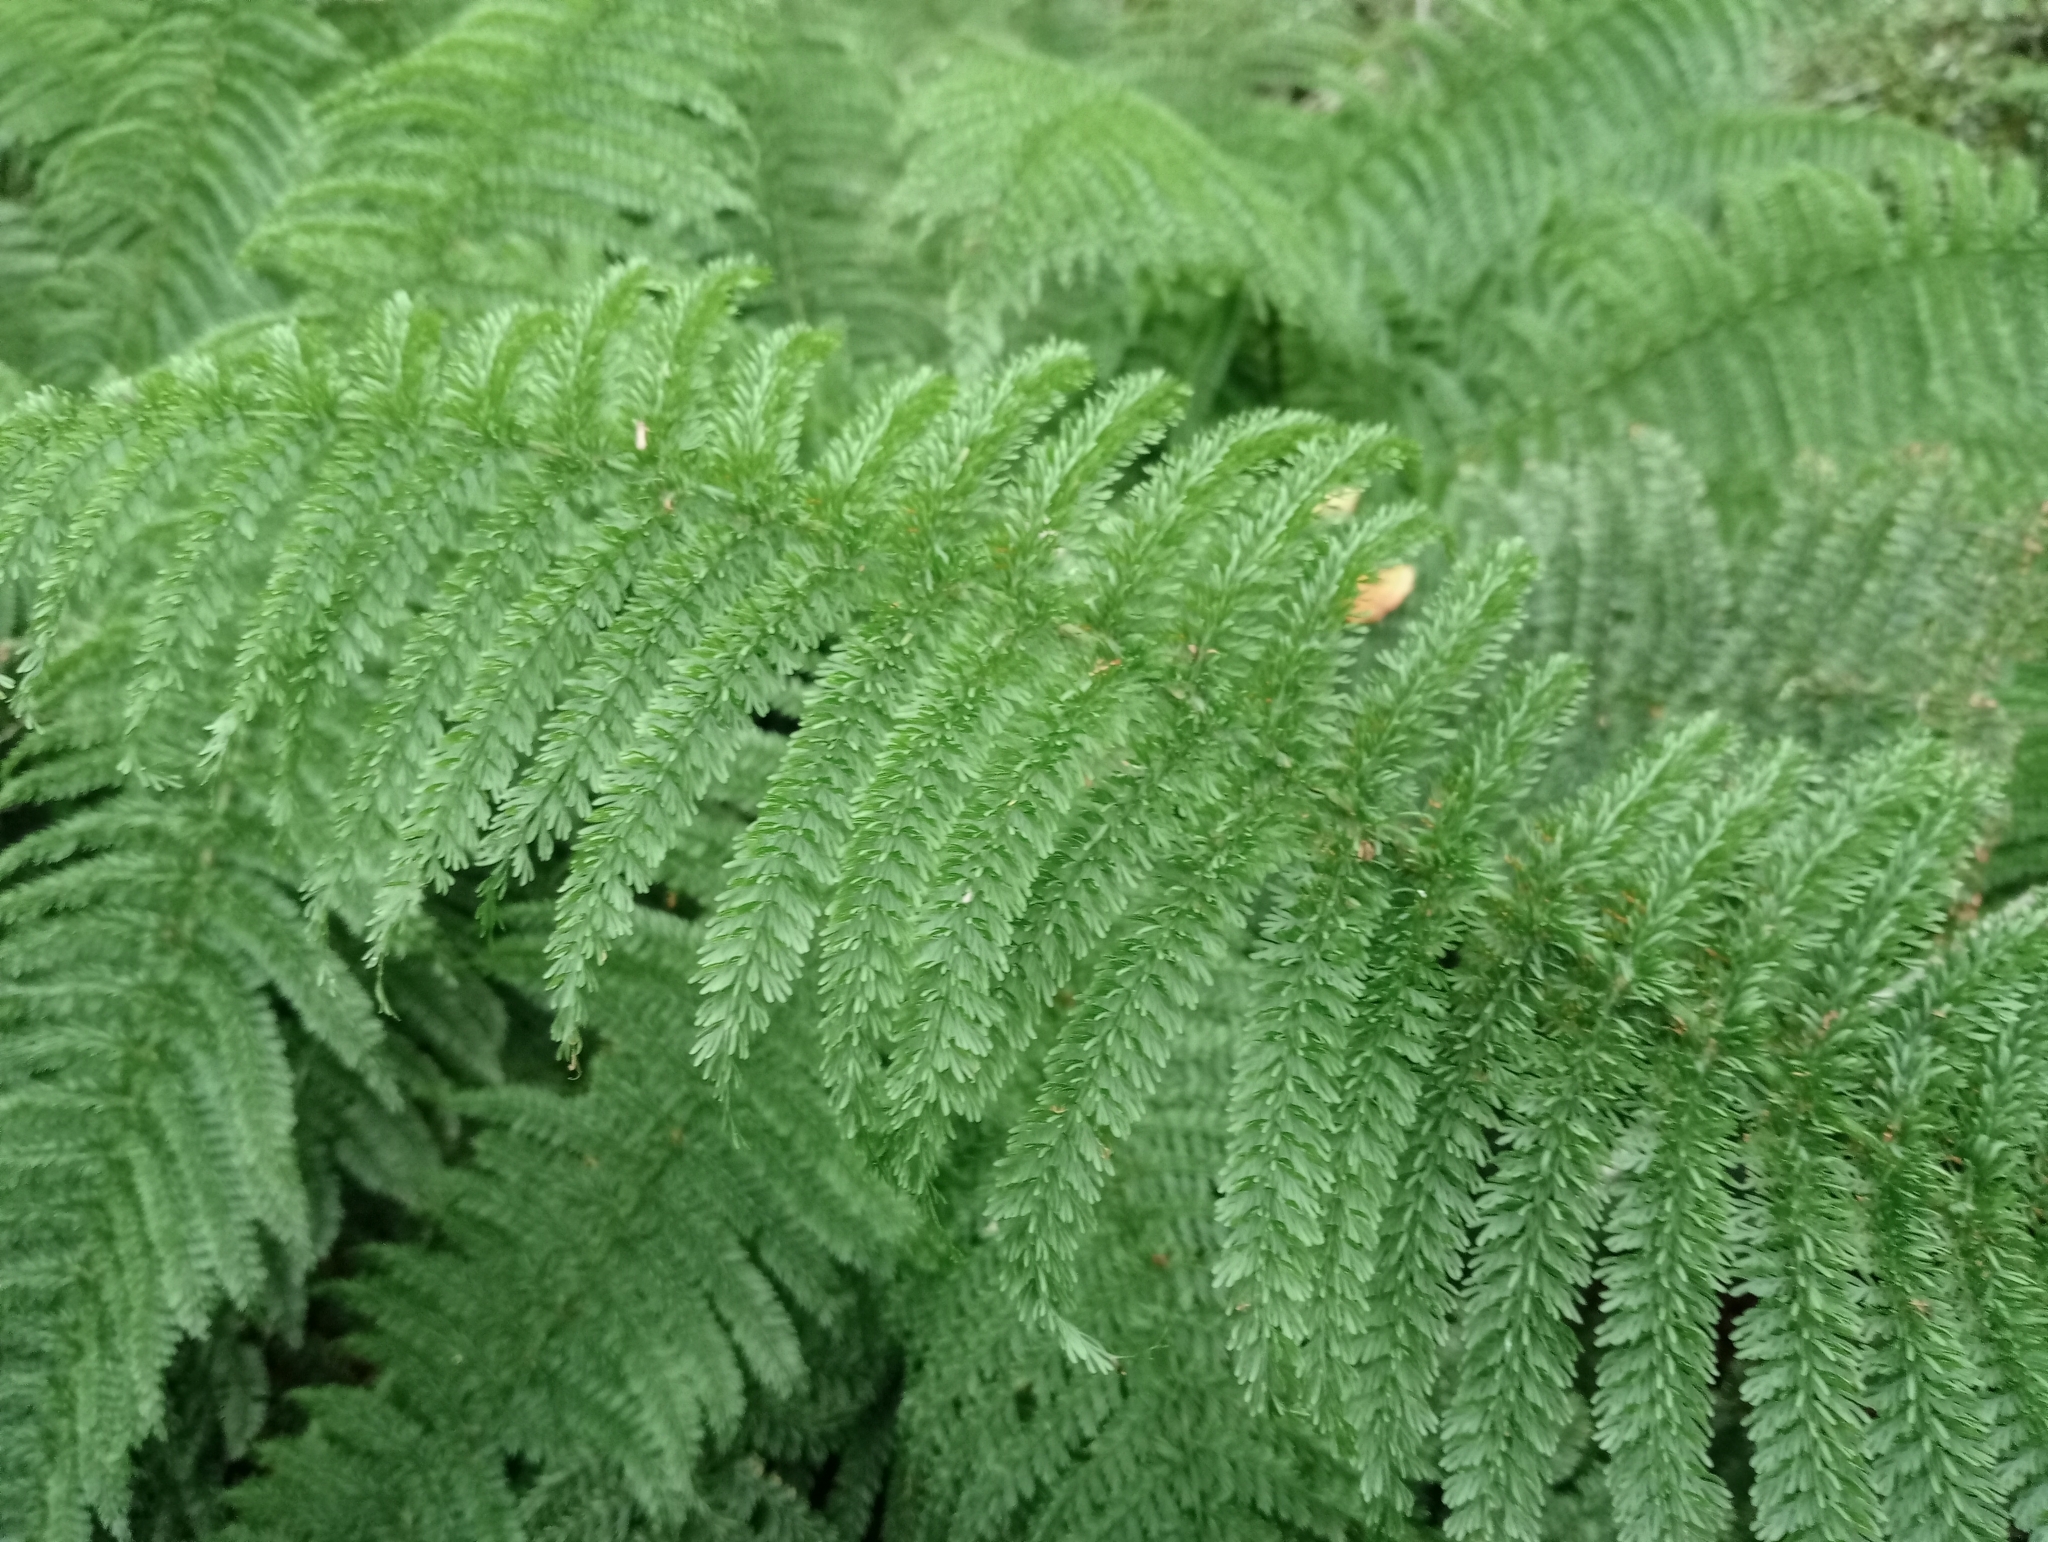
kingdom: Plantae
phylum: Tracheophyta
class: Polypodiopsida
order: Osmundales
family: Osmundaceae
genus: Leptopteris
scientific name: Leptopteris superba
